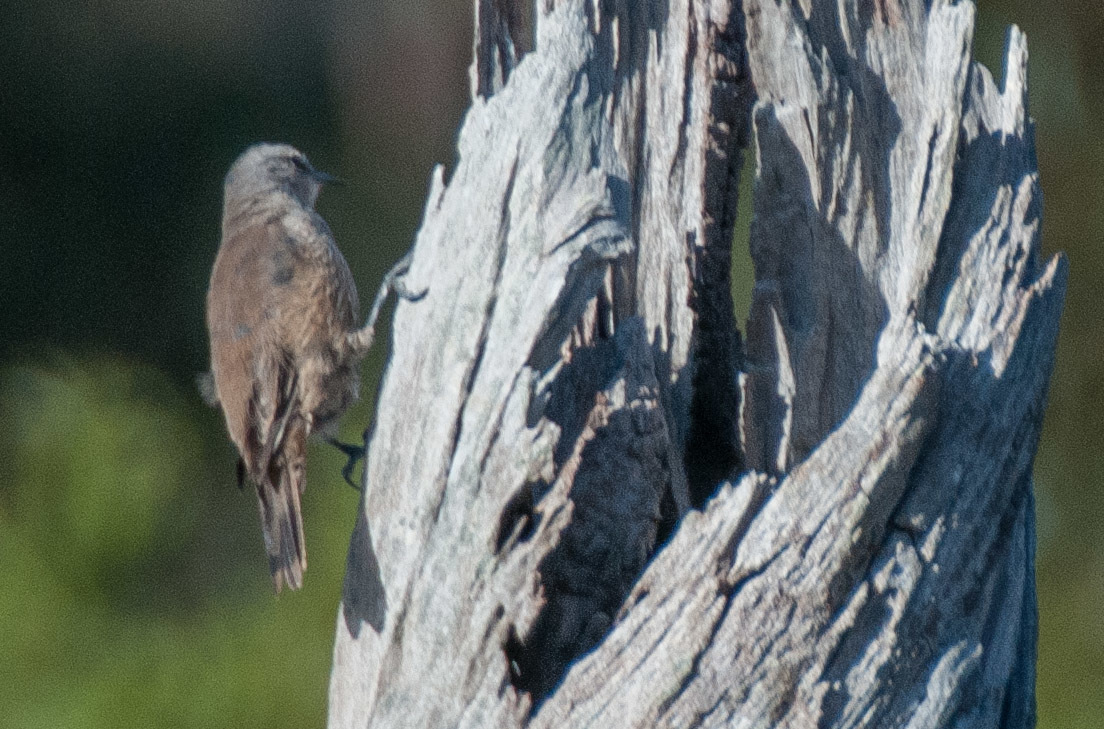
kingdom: Animalia
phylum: Chordata
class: Aves
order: Passeriformes
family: Climacteridae
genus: Climacteris
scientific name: Climacteris picumnus
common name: Brown treecreeper
